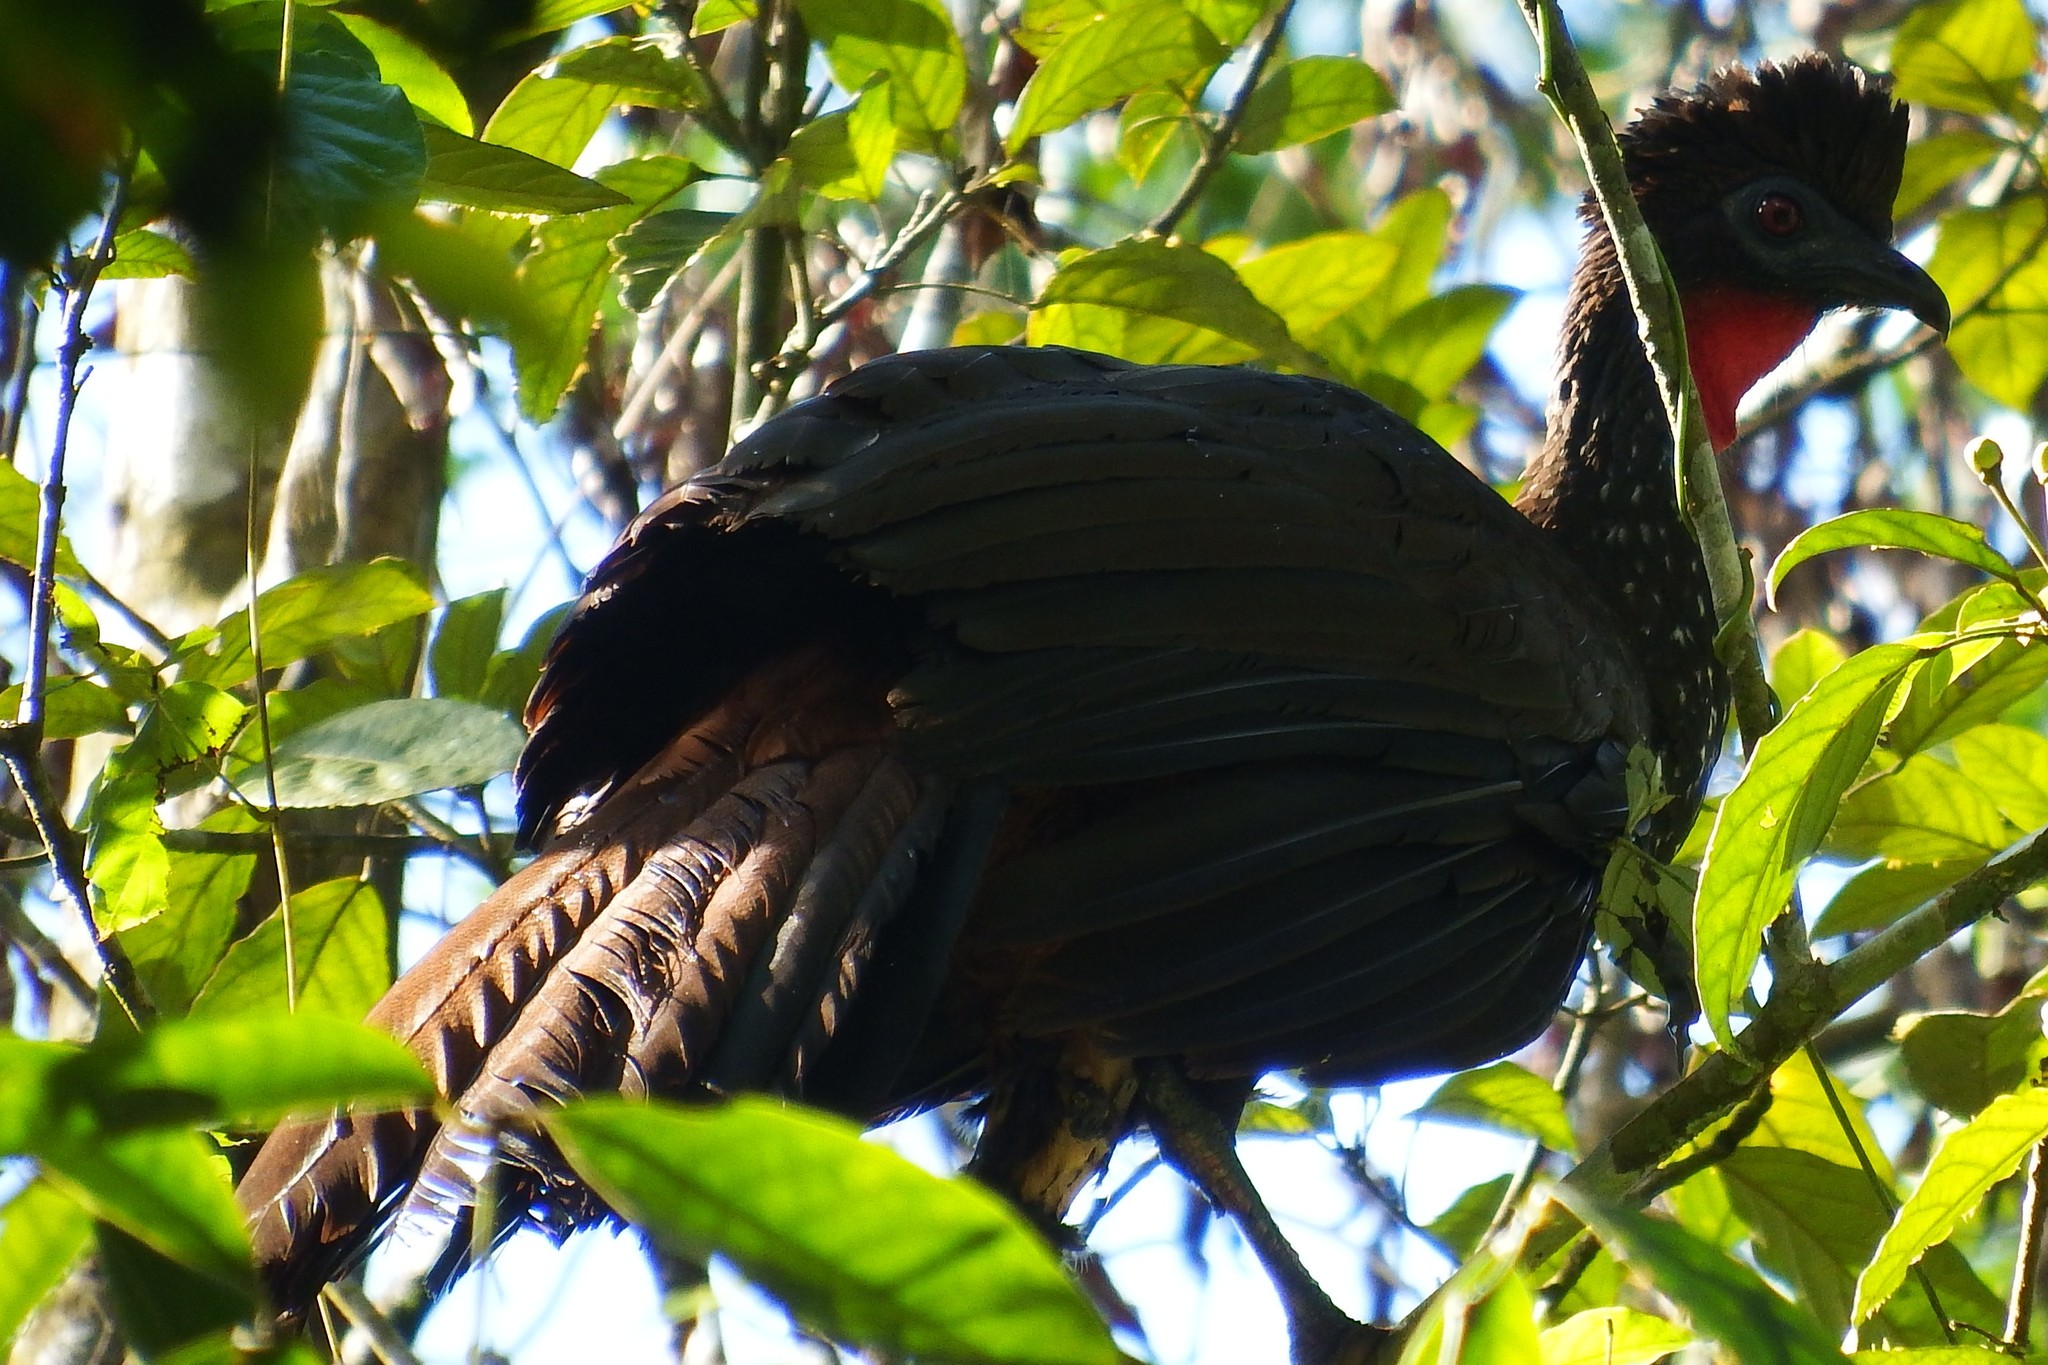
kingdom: Animalia
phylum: Chordata
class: Aves
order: Galliformes
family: Cracidae
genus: Penelope
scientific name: Penelope purpurascens
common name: Crested guan
